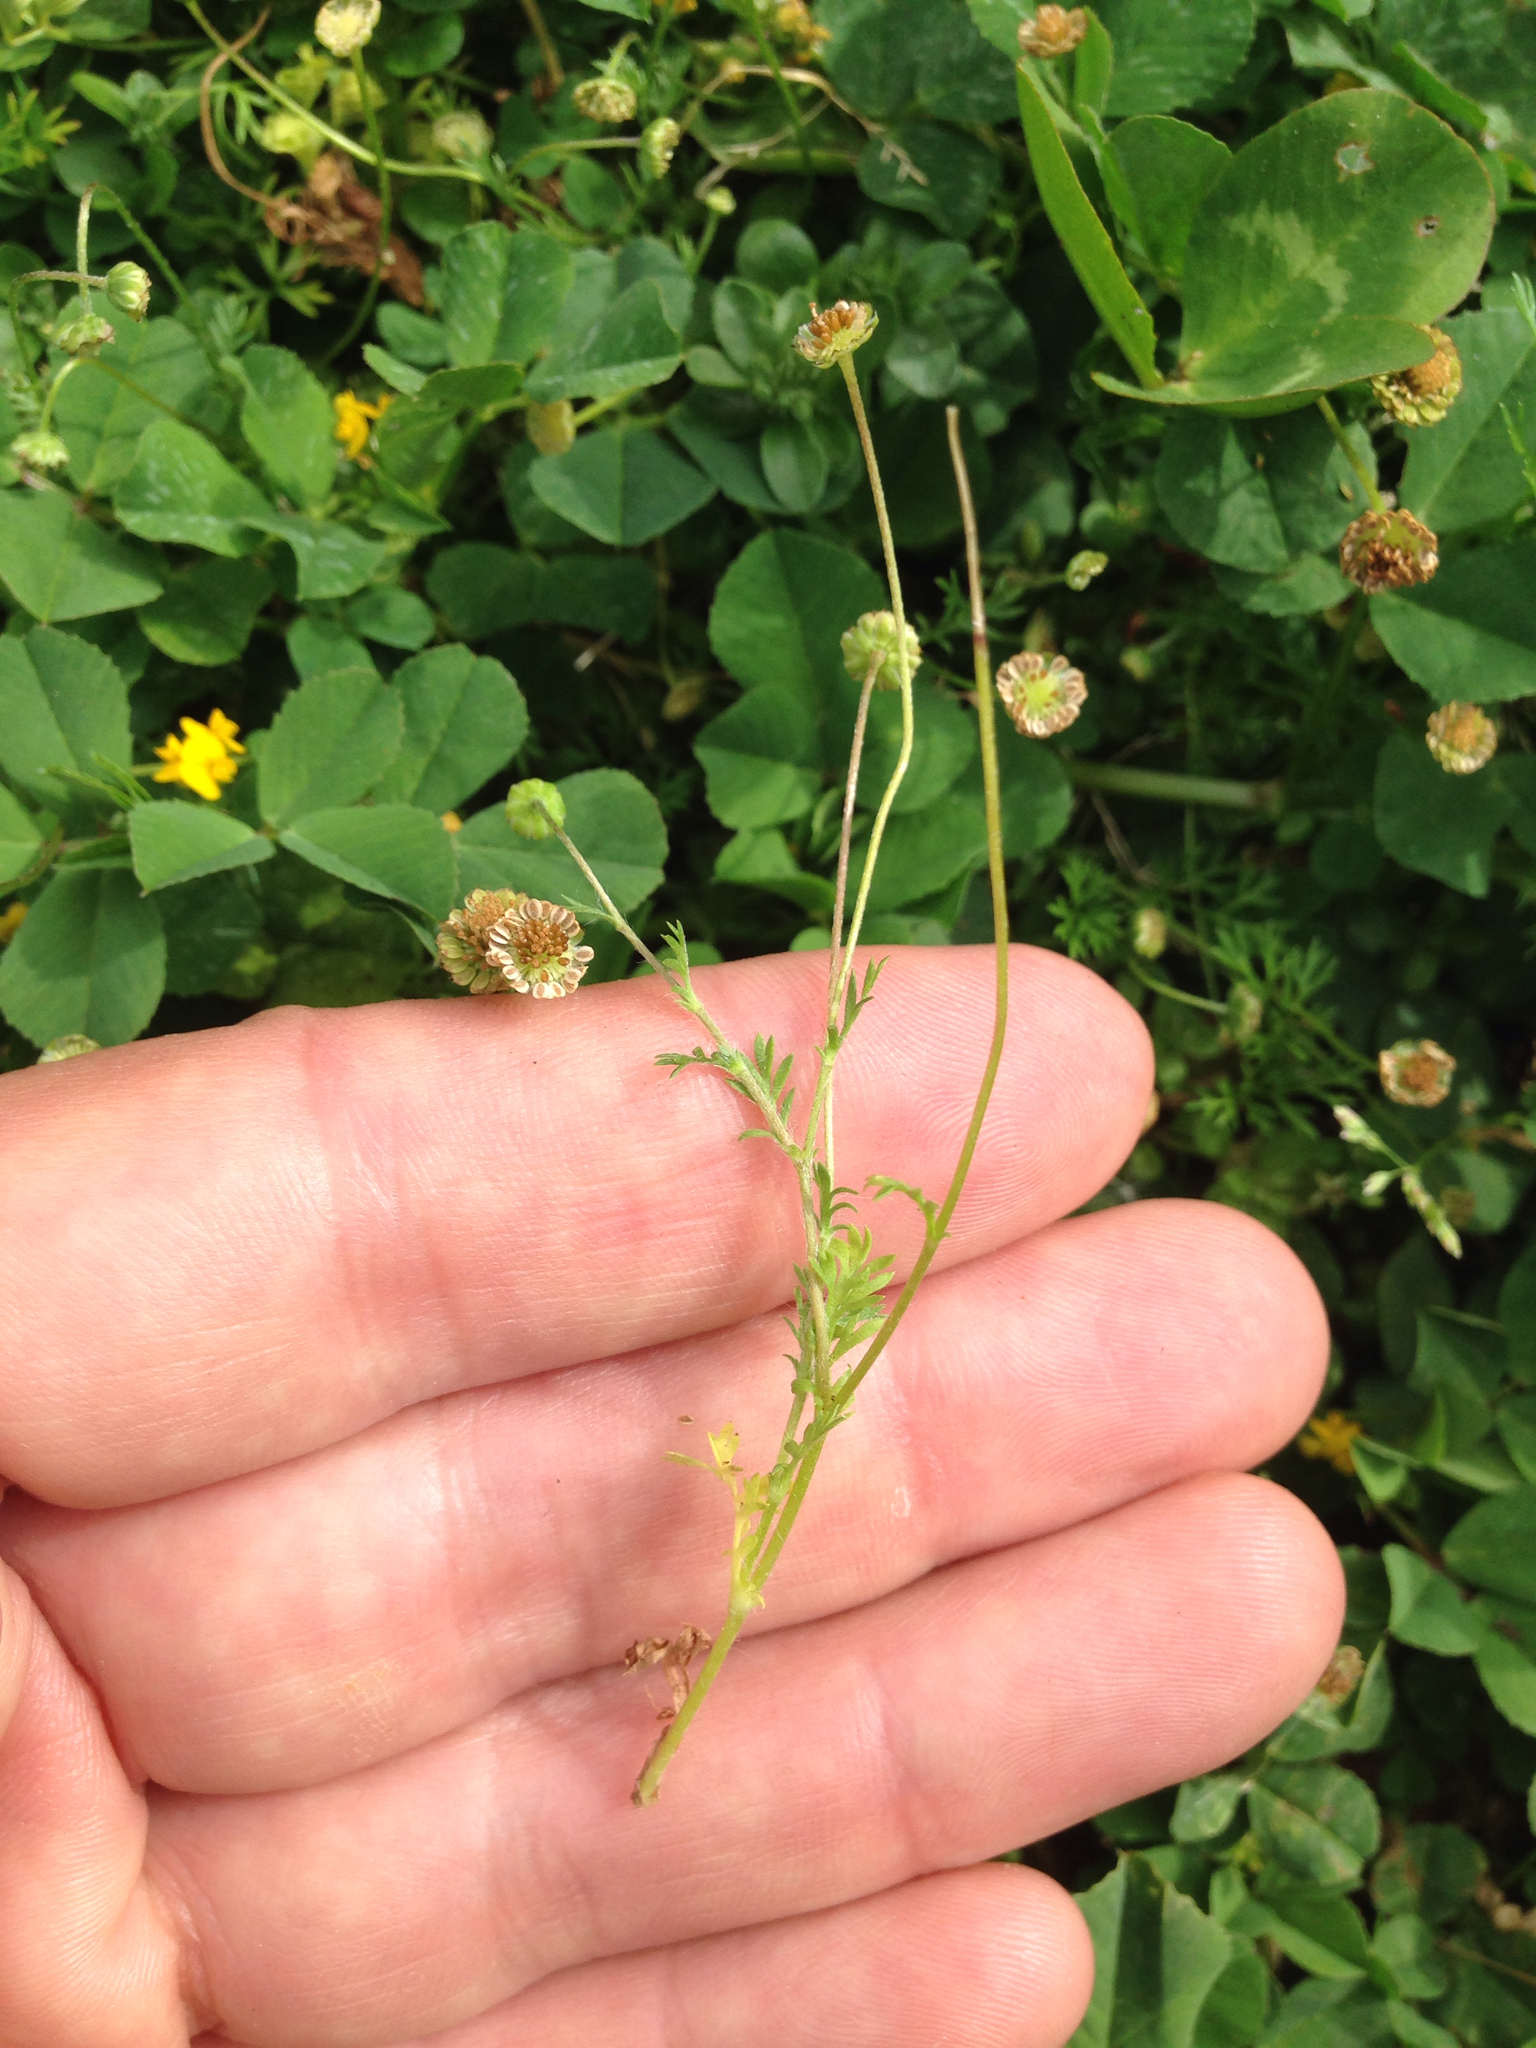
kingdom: Plantae
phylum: Tracheophyta
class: Magnoliopsida
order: Asterales
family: Asteraceae
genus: Cotula
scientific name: Cotula australis
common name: Australian waterbuttons
